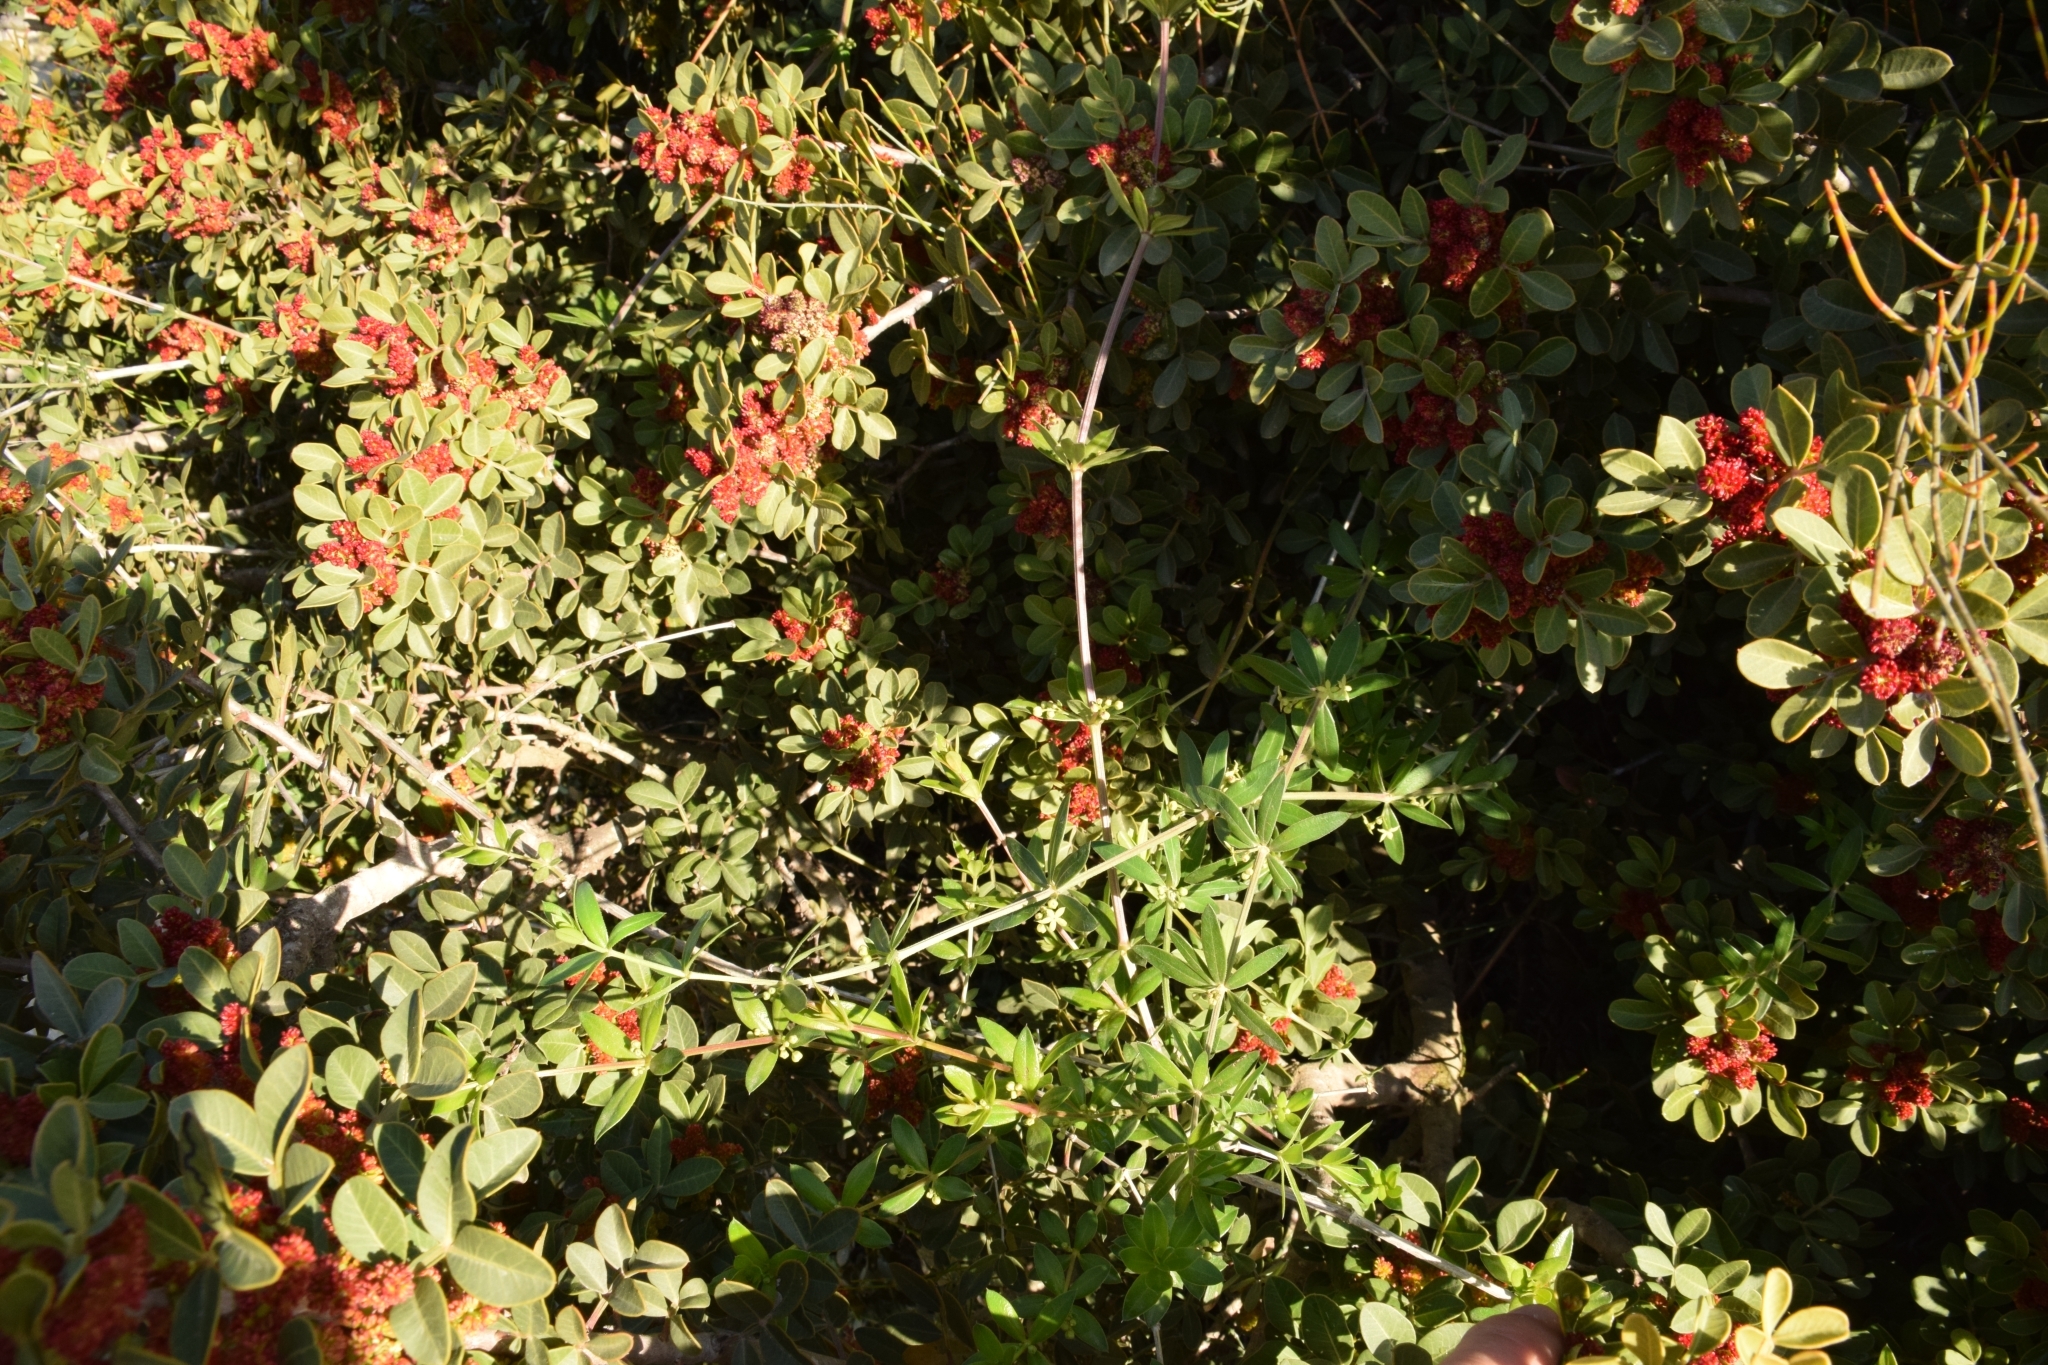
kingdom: Plantae
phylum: Tracheophyta
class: Magnoliopsida
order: Gentianales
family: Rubiaceae
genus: Rubia
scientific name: Rubia tenuifolia
